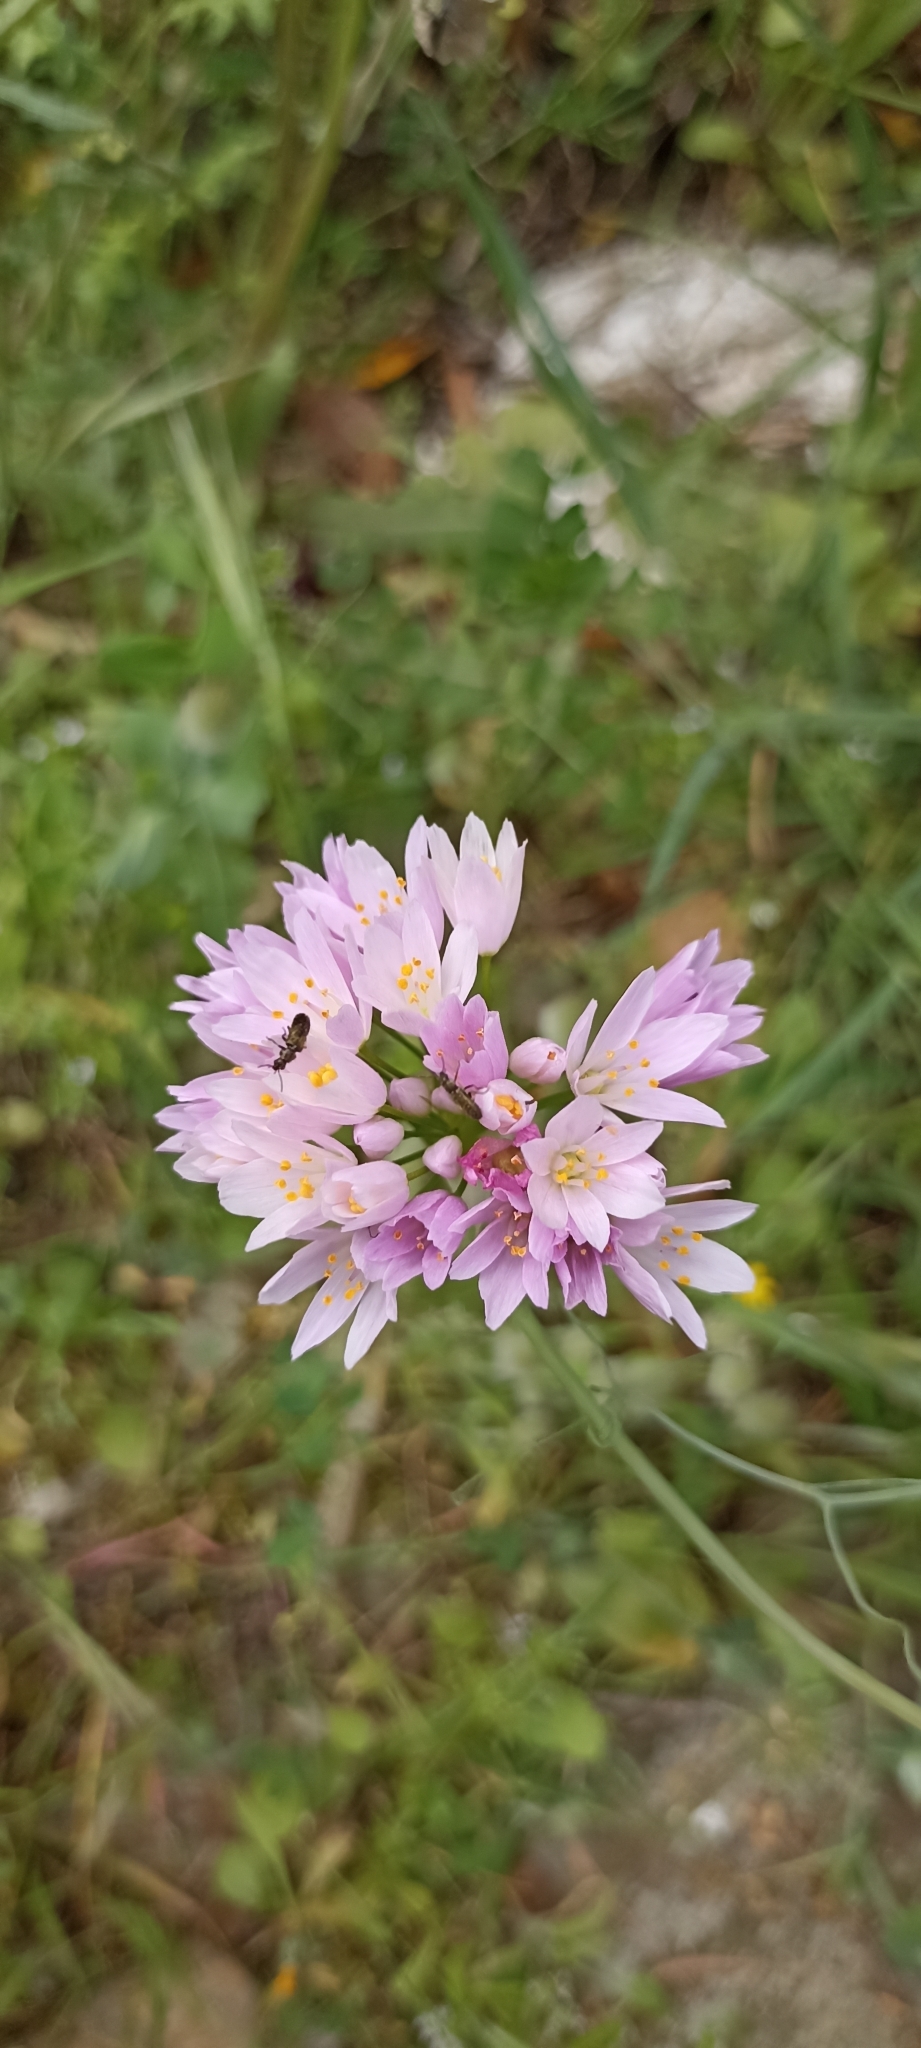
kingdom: Plantae
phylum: Tracheophyta
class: Liliopsida
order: Asparagales
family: Amaryllidaceae
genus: Allium
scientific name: Allium roseum
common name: Rosy garlic
